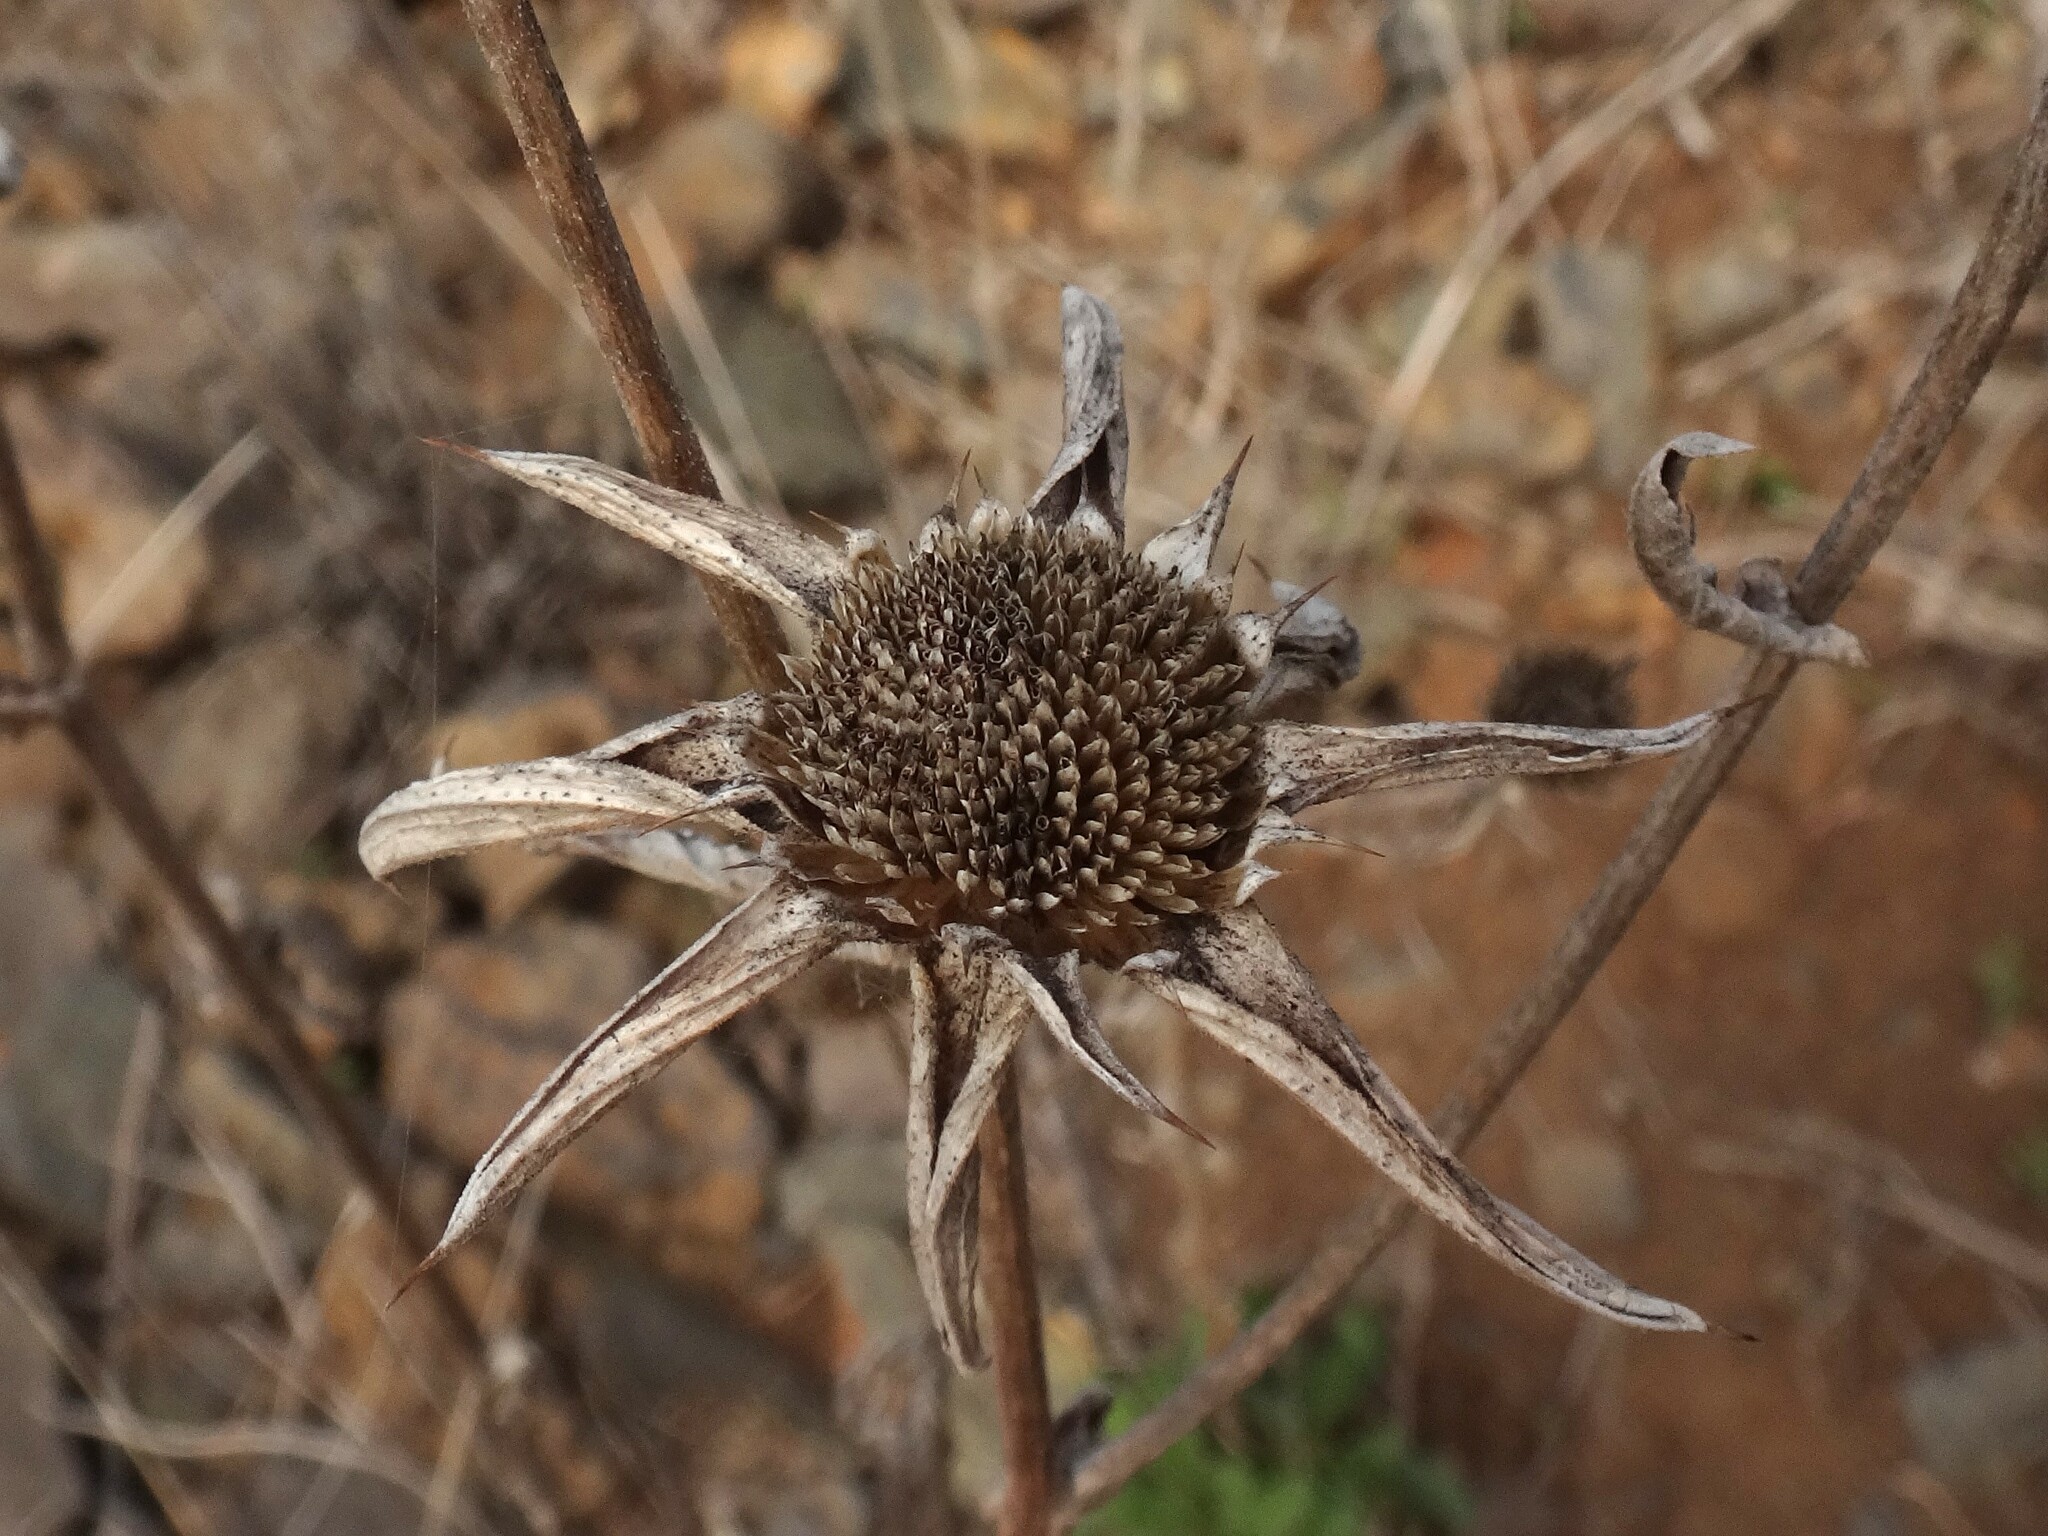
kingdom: Plantae
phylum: Tracheophyta
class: Magnoliopsida
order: Asterales
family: Asteraceae
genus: Pallenis
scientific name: Pallenis spinosa
